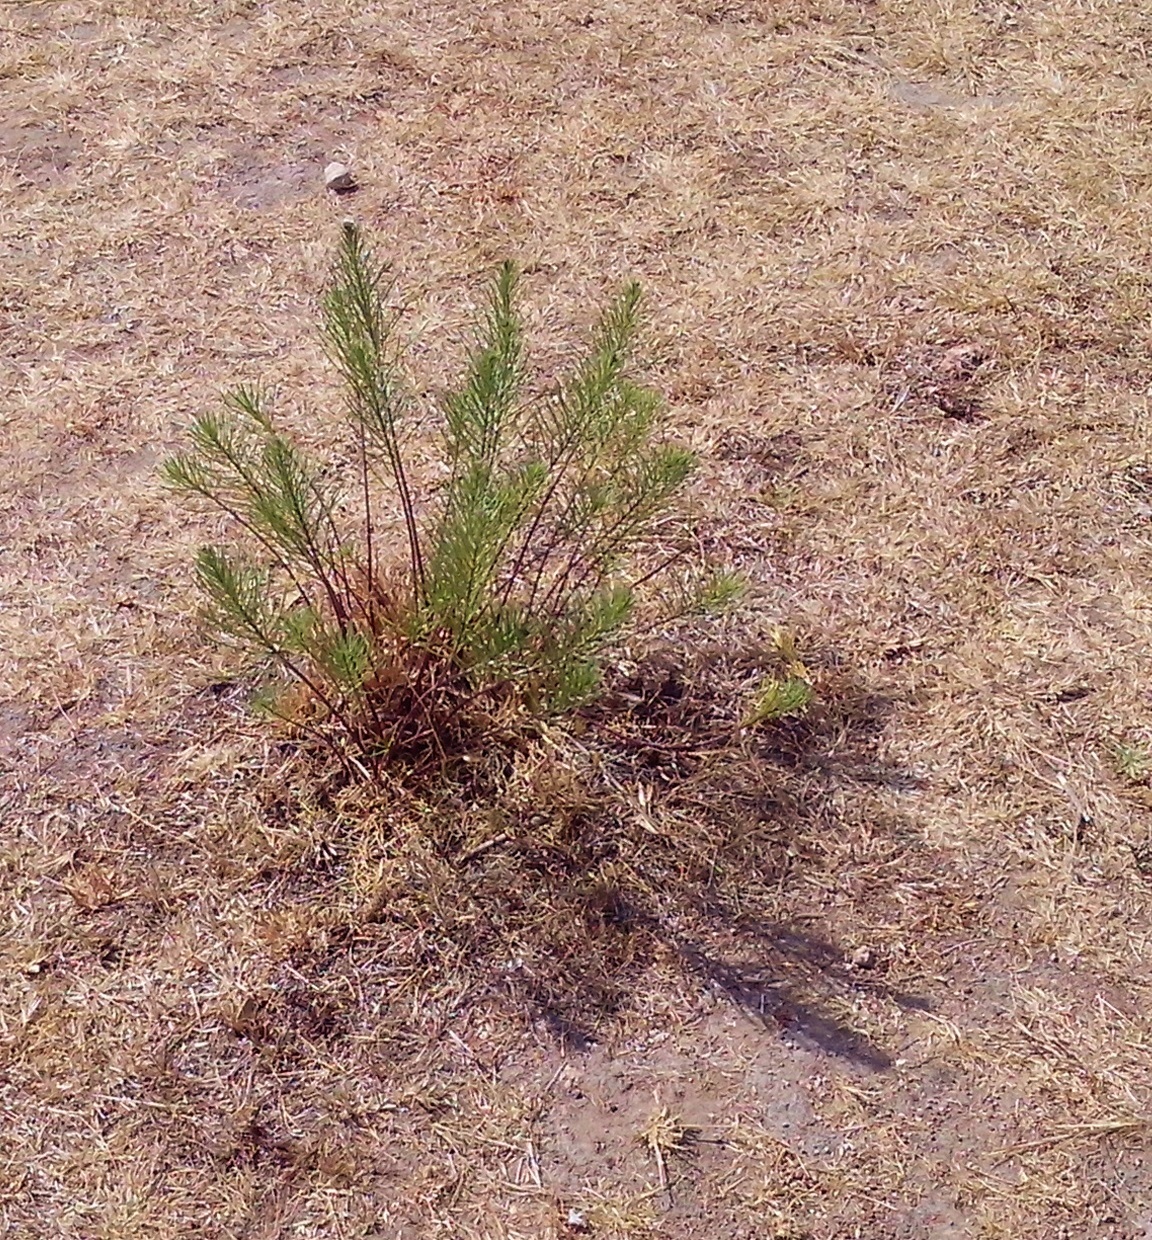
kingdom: Plantae
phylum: Tracheophyta
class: Magnoliopsida
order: Gentianales
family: Apocynaceae
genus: Asclepias
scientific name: Asclepias linaria
